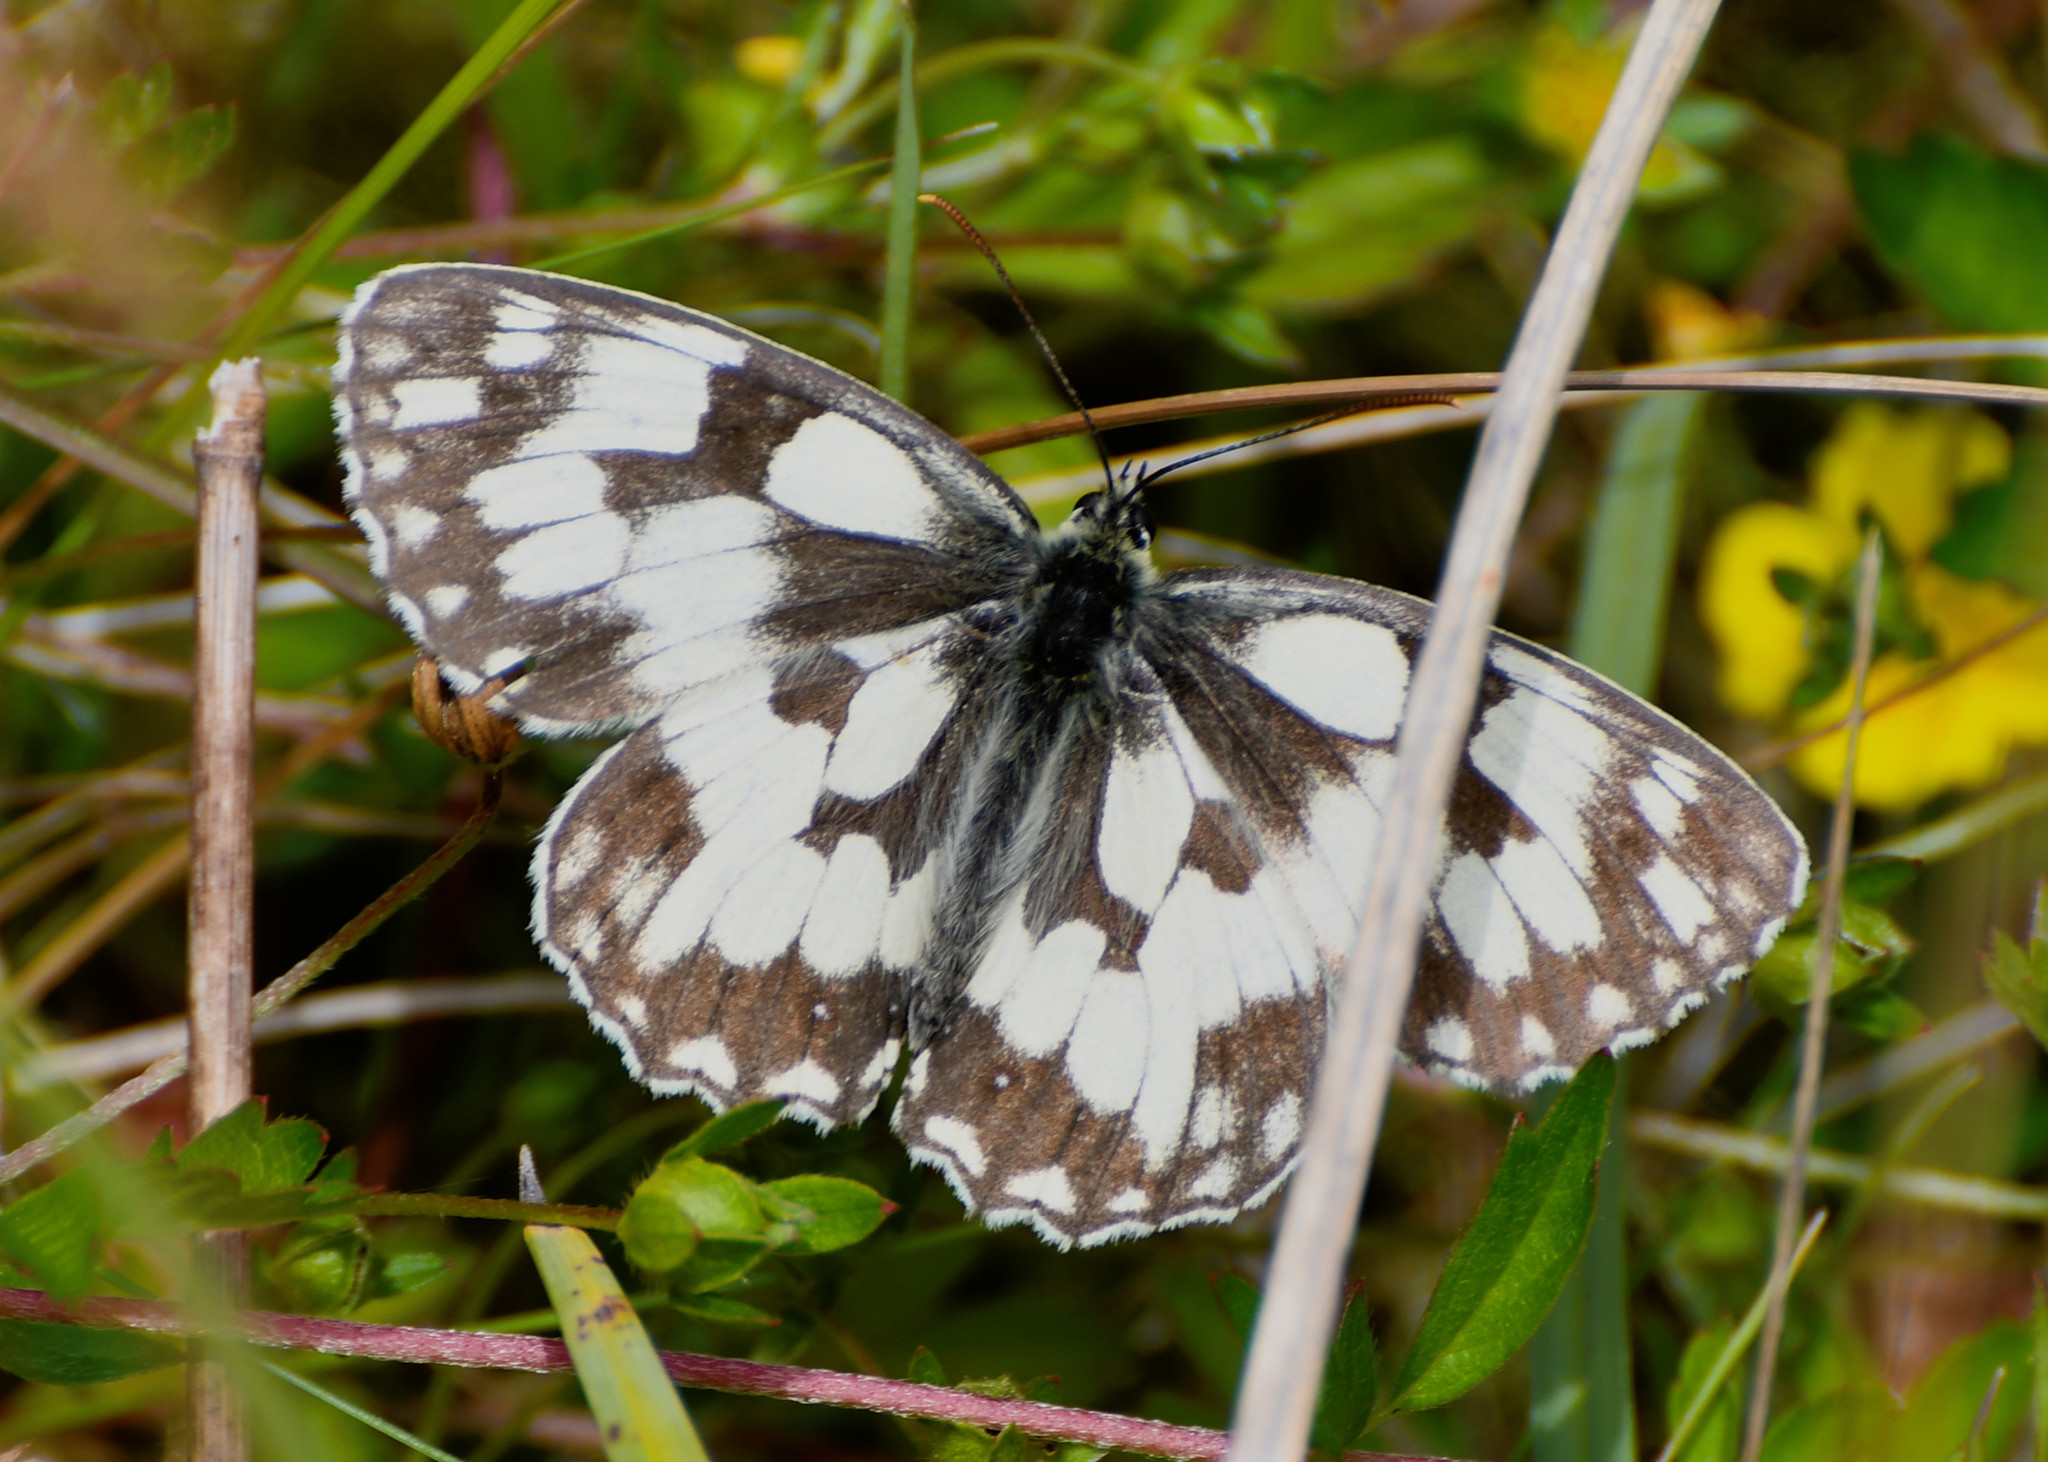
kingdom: Animalia
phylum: Arthropoda
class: Insecta
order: Lepidoptera
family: Nymphalidae
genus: Melanargia
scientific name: Melanargia galathea
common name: Marbled white
